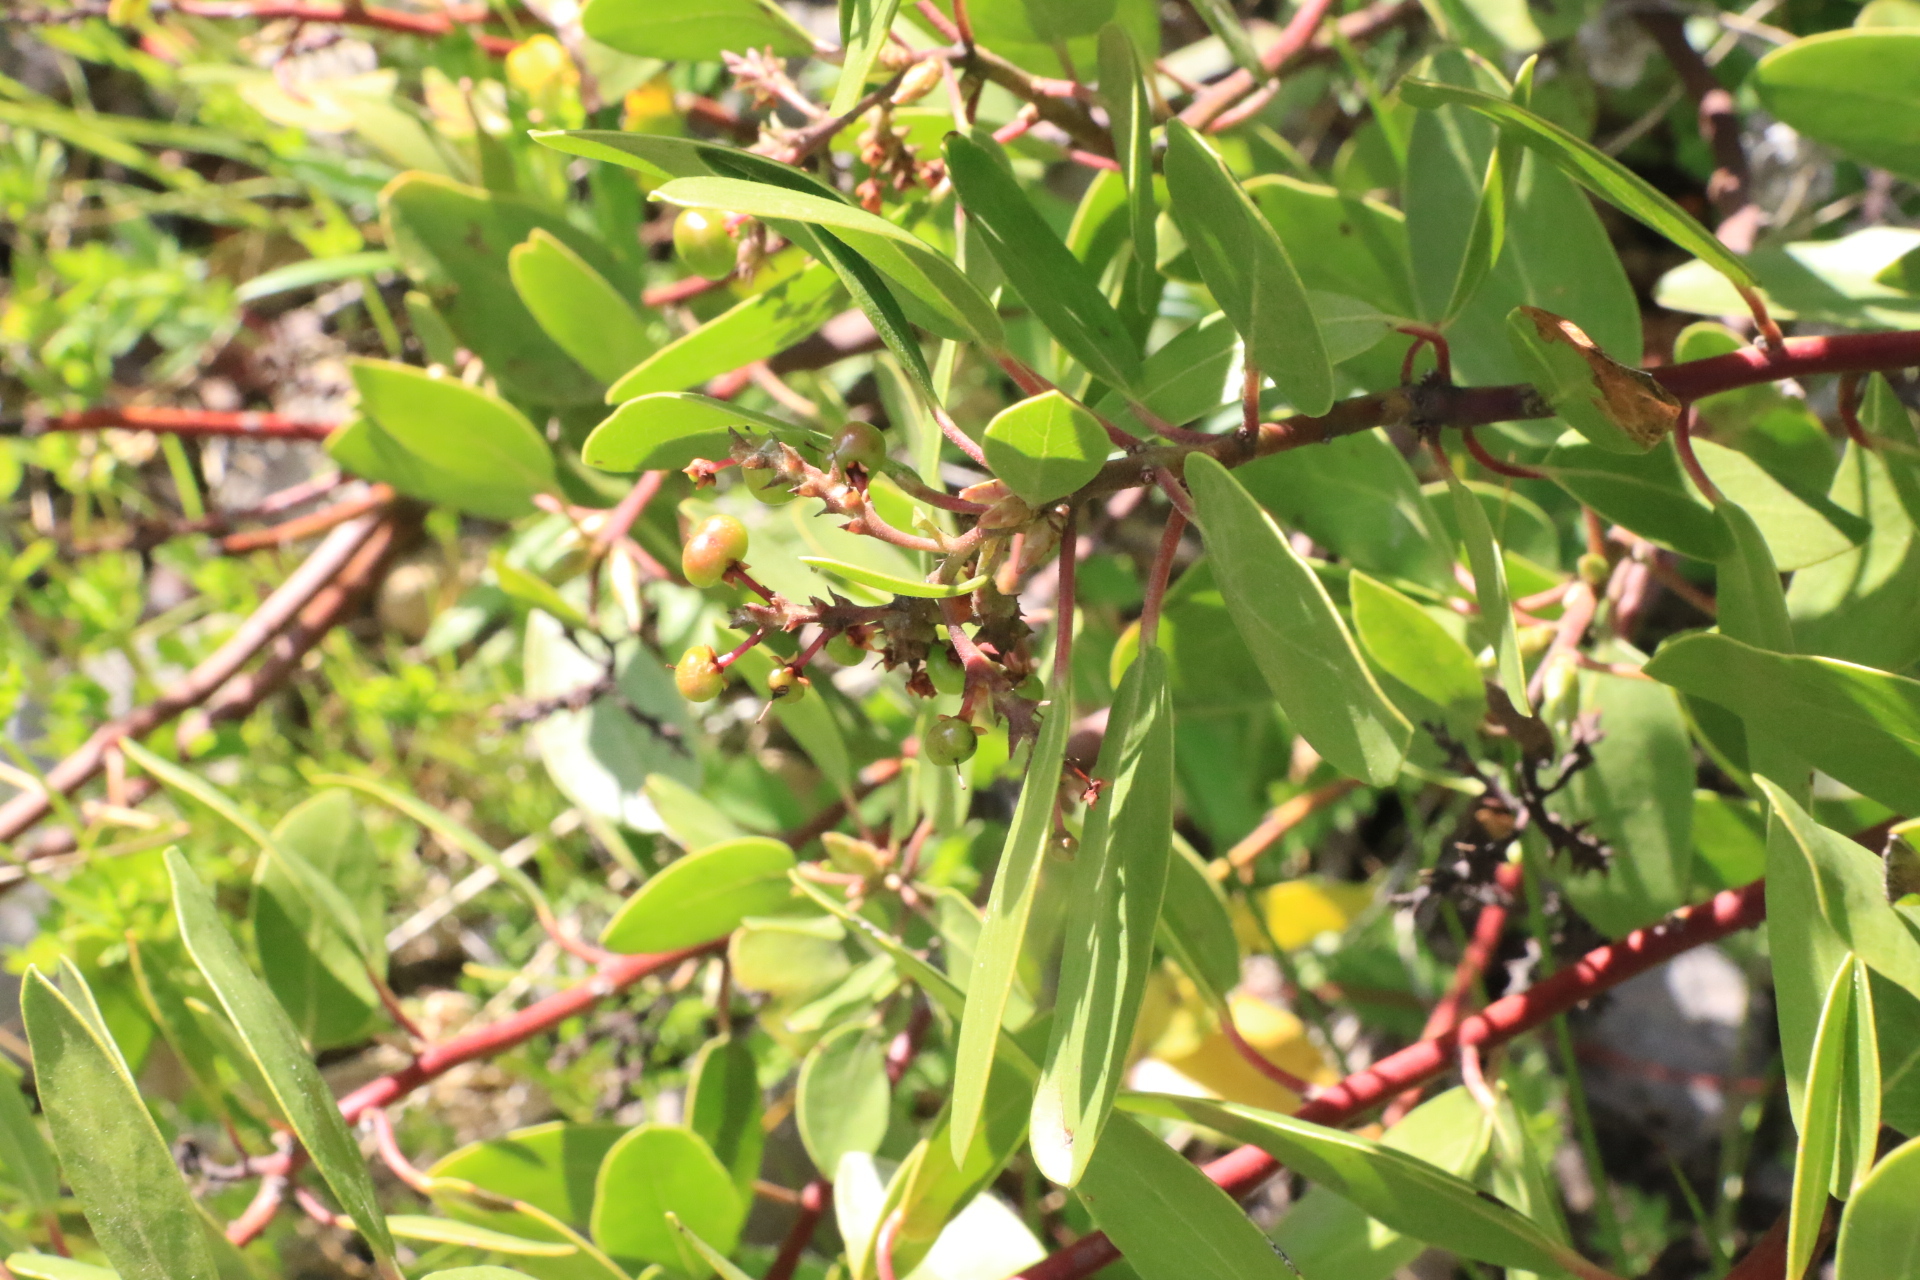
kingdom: Plantae
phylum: Tracheophyta
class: Magnoliopsida
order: Ericales
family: Ericaceae
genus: Arctostaphylos
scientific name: Arctostaphylos patula
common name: Green-leaf manzanita
